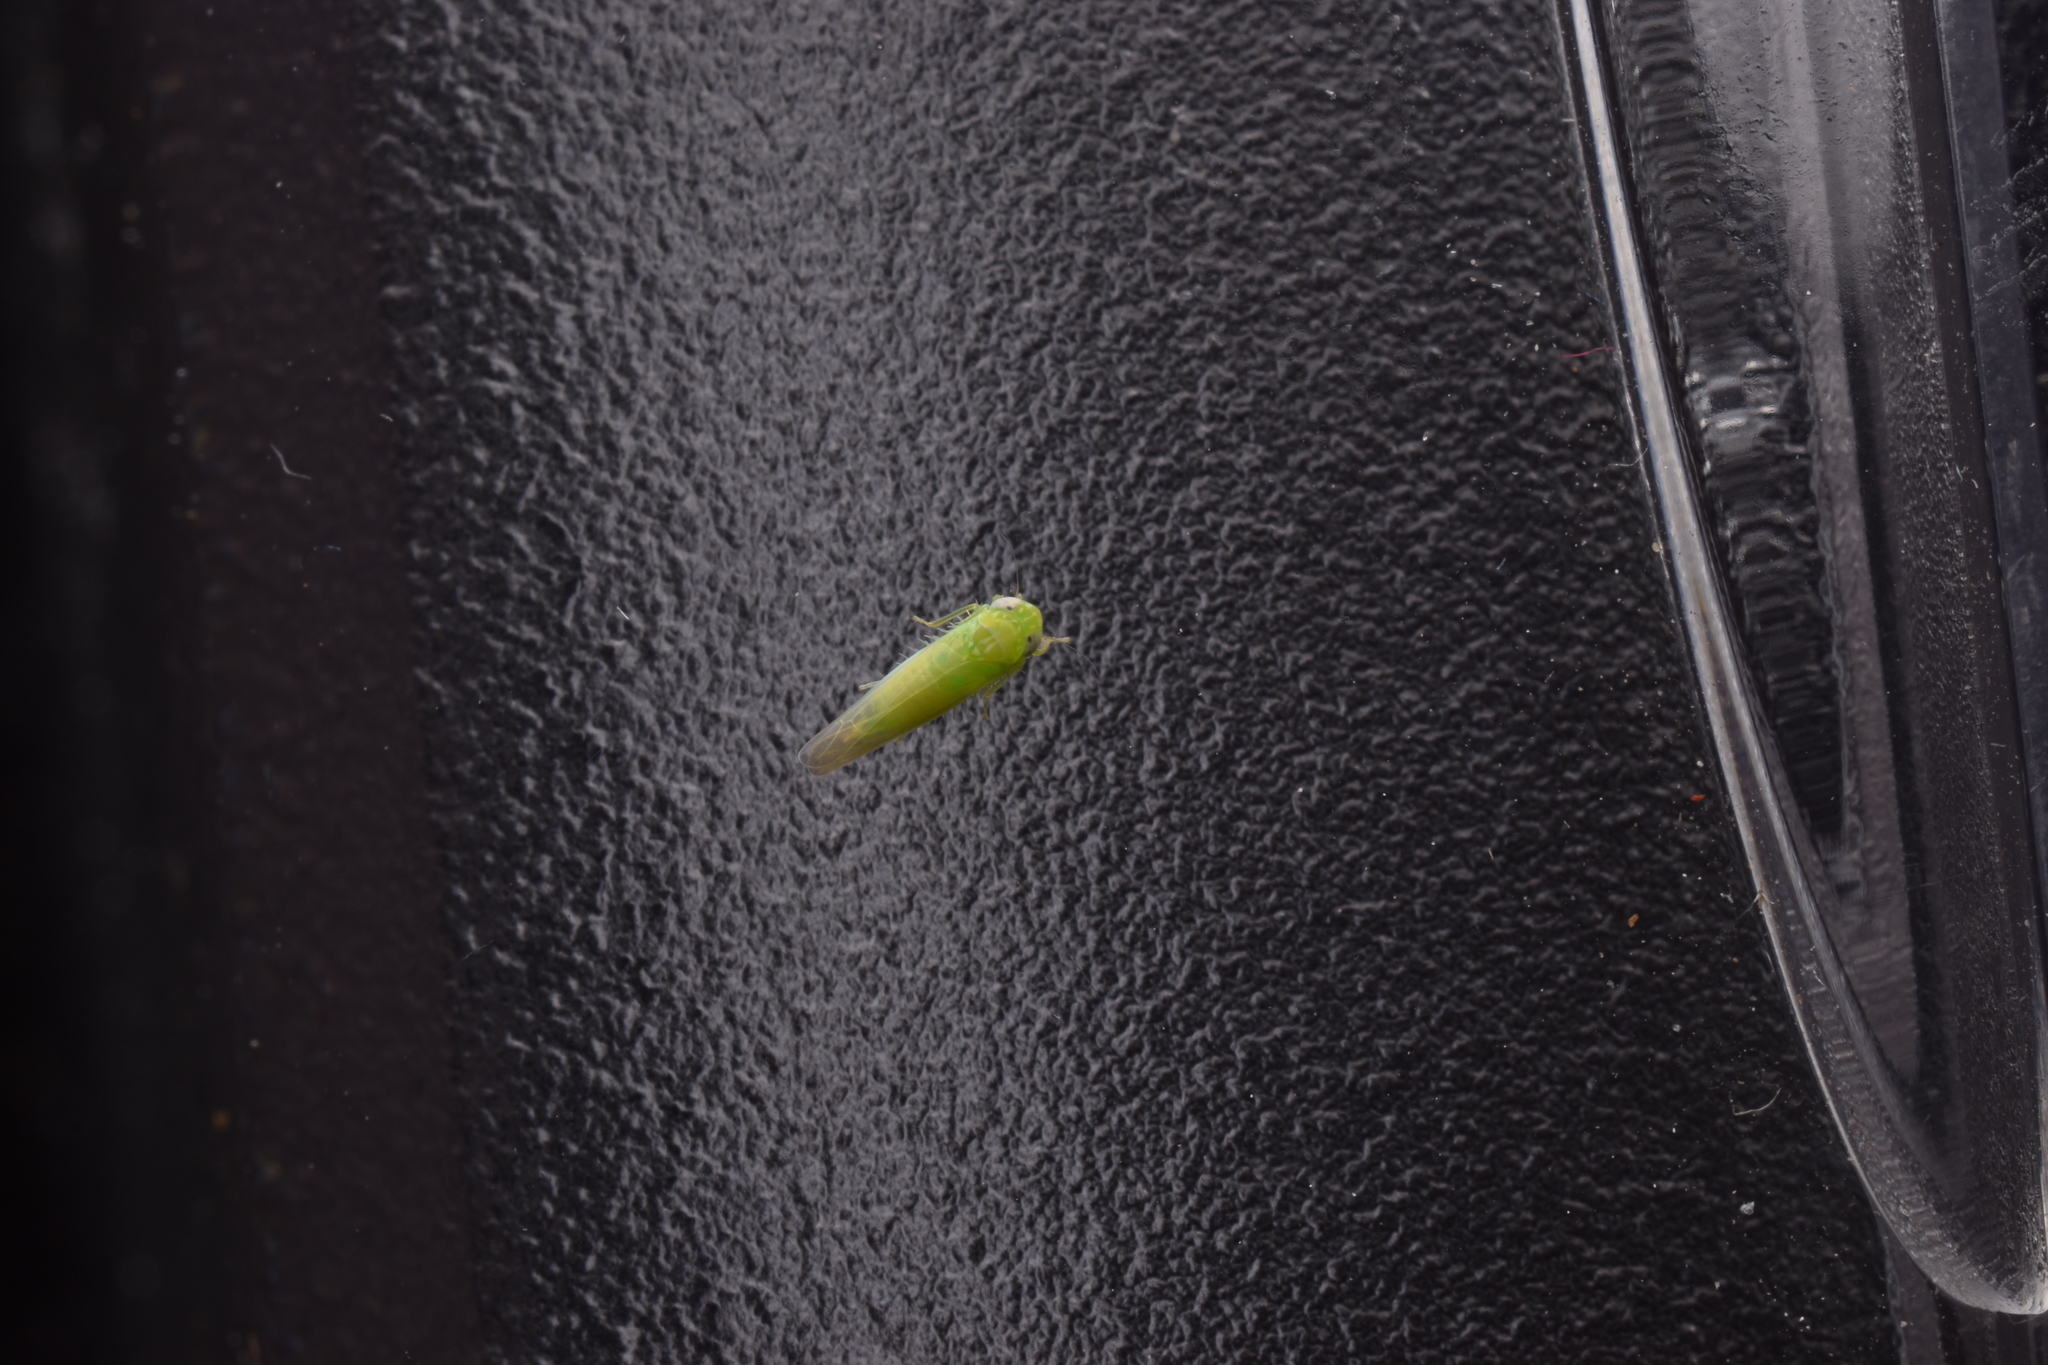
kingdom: Animalia
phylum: Arthropoda
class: Insecta
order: Hemiptera
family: Cicadellidae
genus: Empoasca
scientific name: Empoasca fabae
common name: Potato leafhopper
